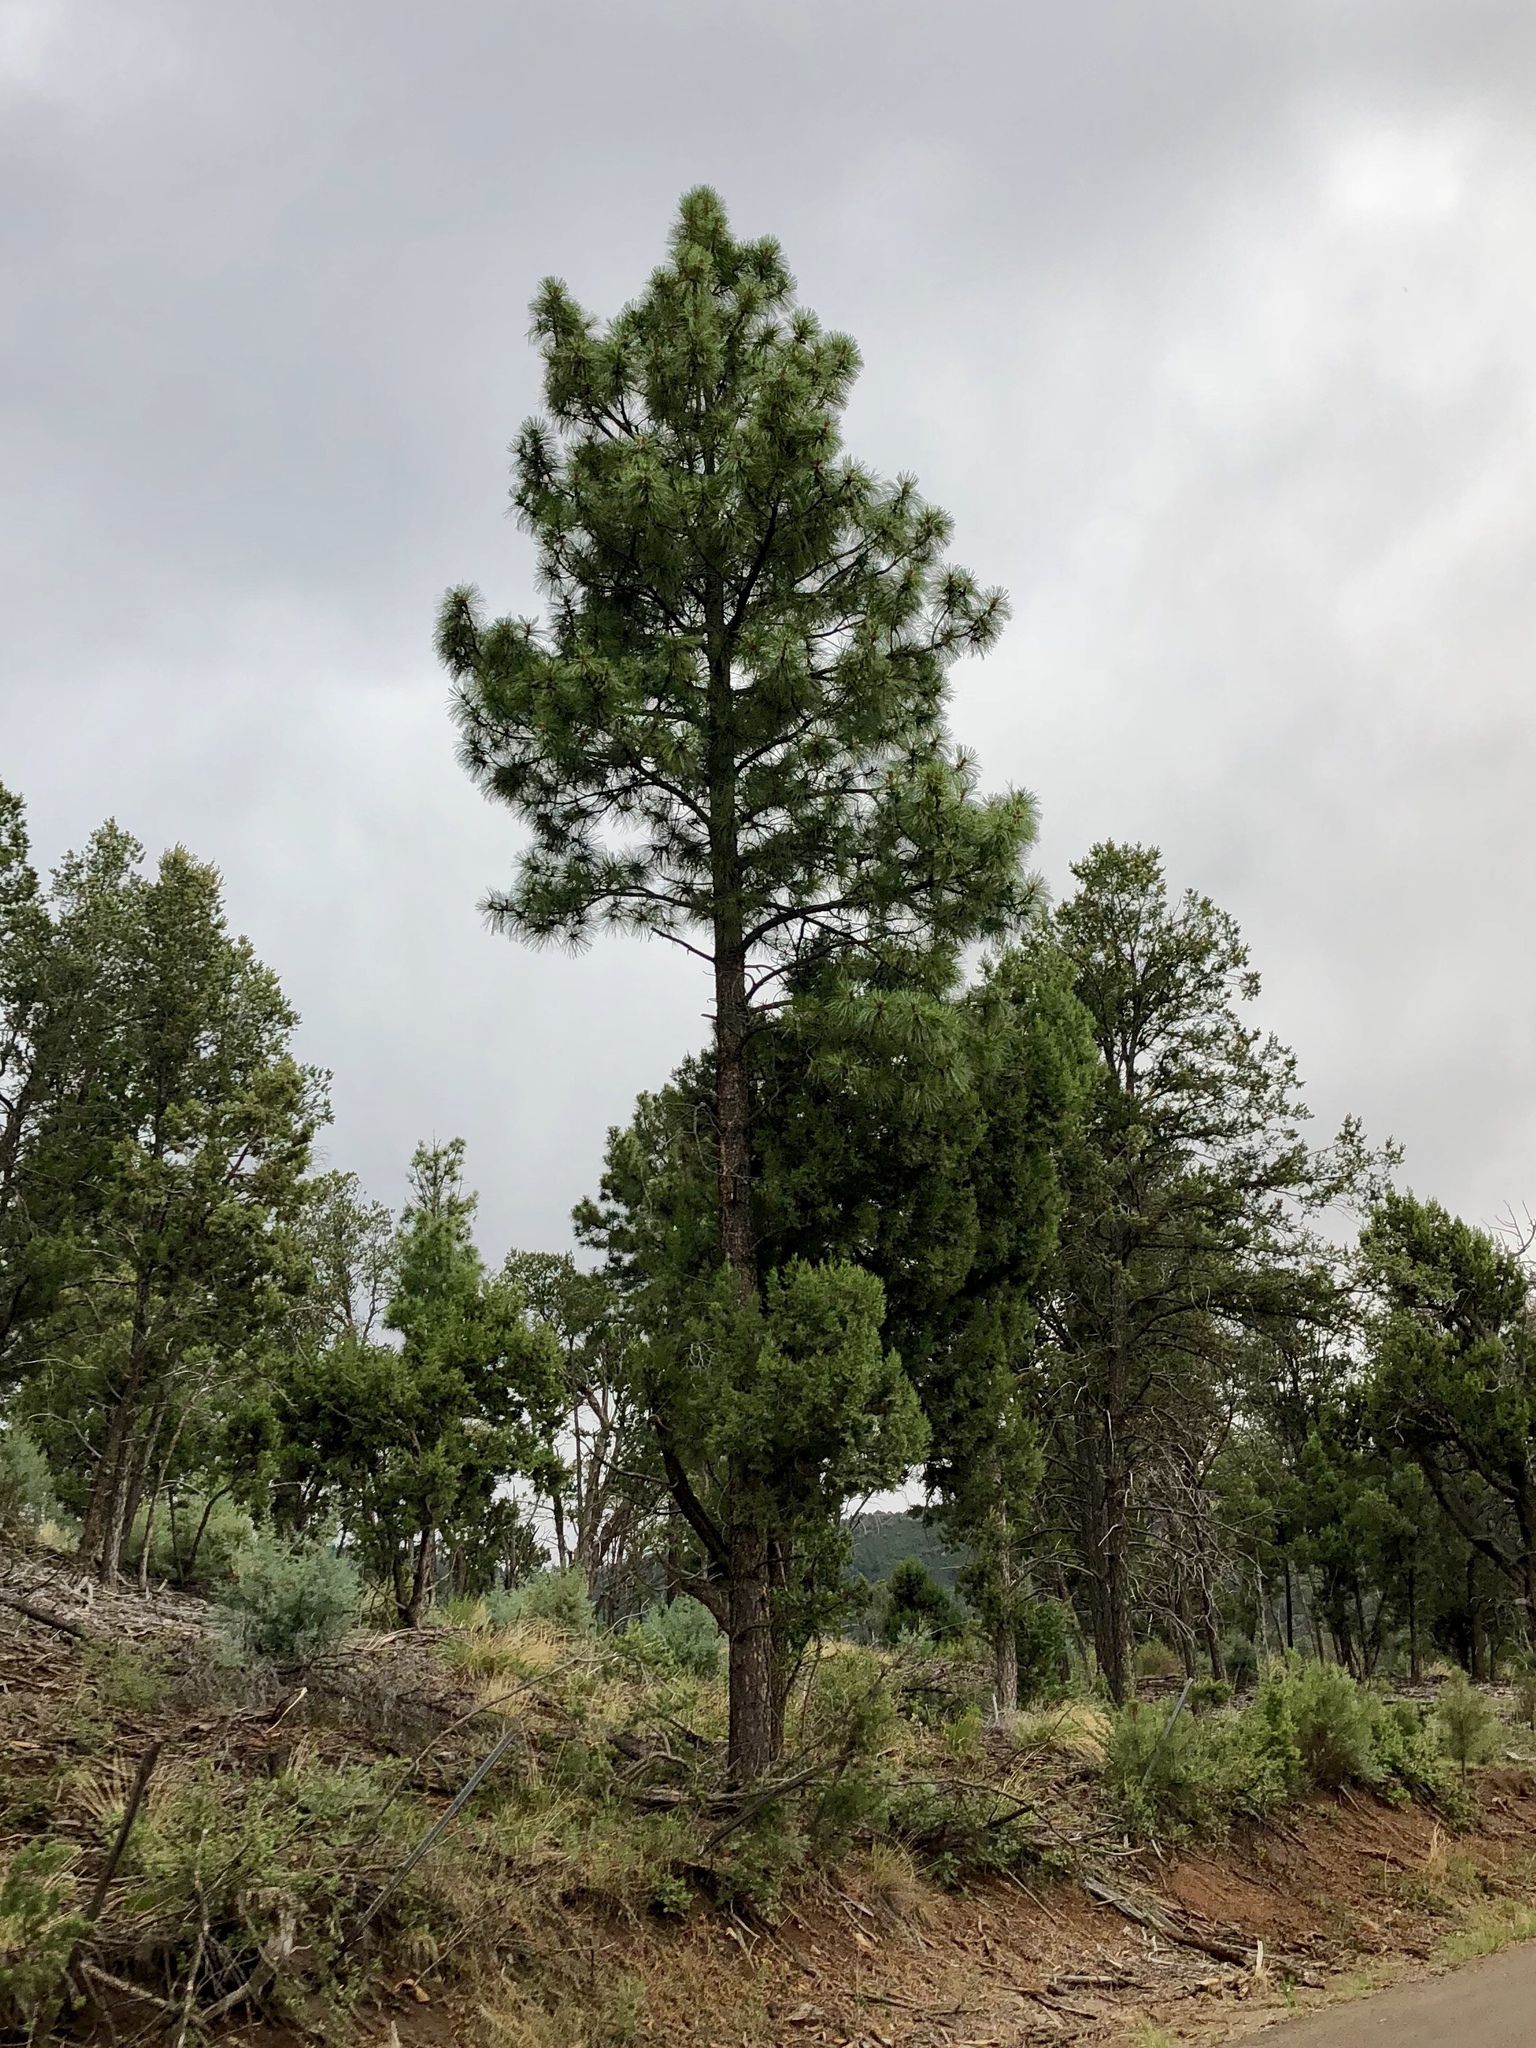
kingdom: Plantae
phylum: Tracheophyta
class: Pinopsida
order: Pinales
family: Pinaceae
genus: Pinus
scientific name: Pinus ponderosa
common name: Western yellow-pine
